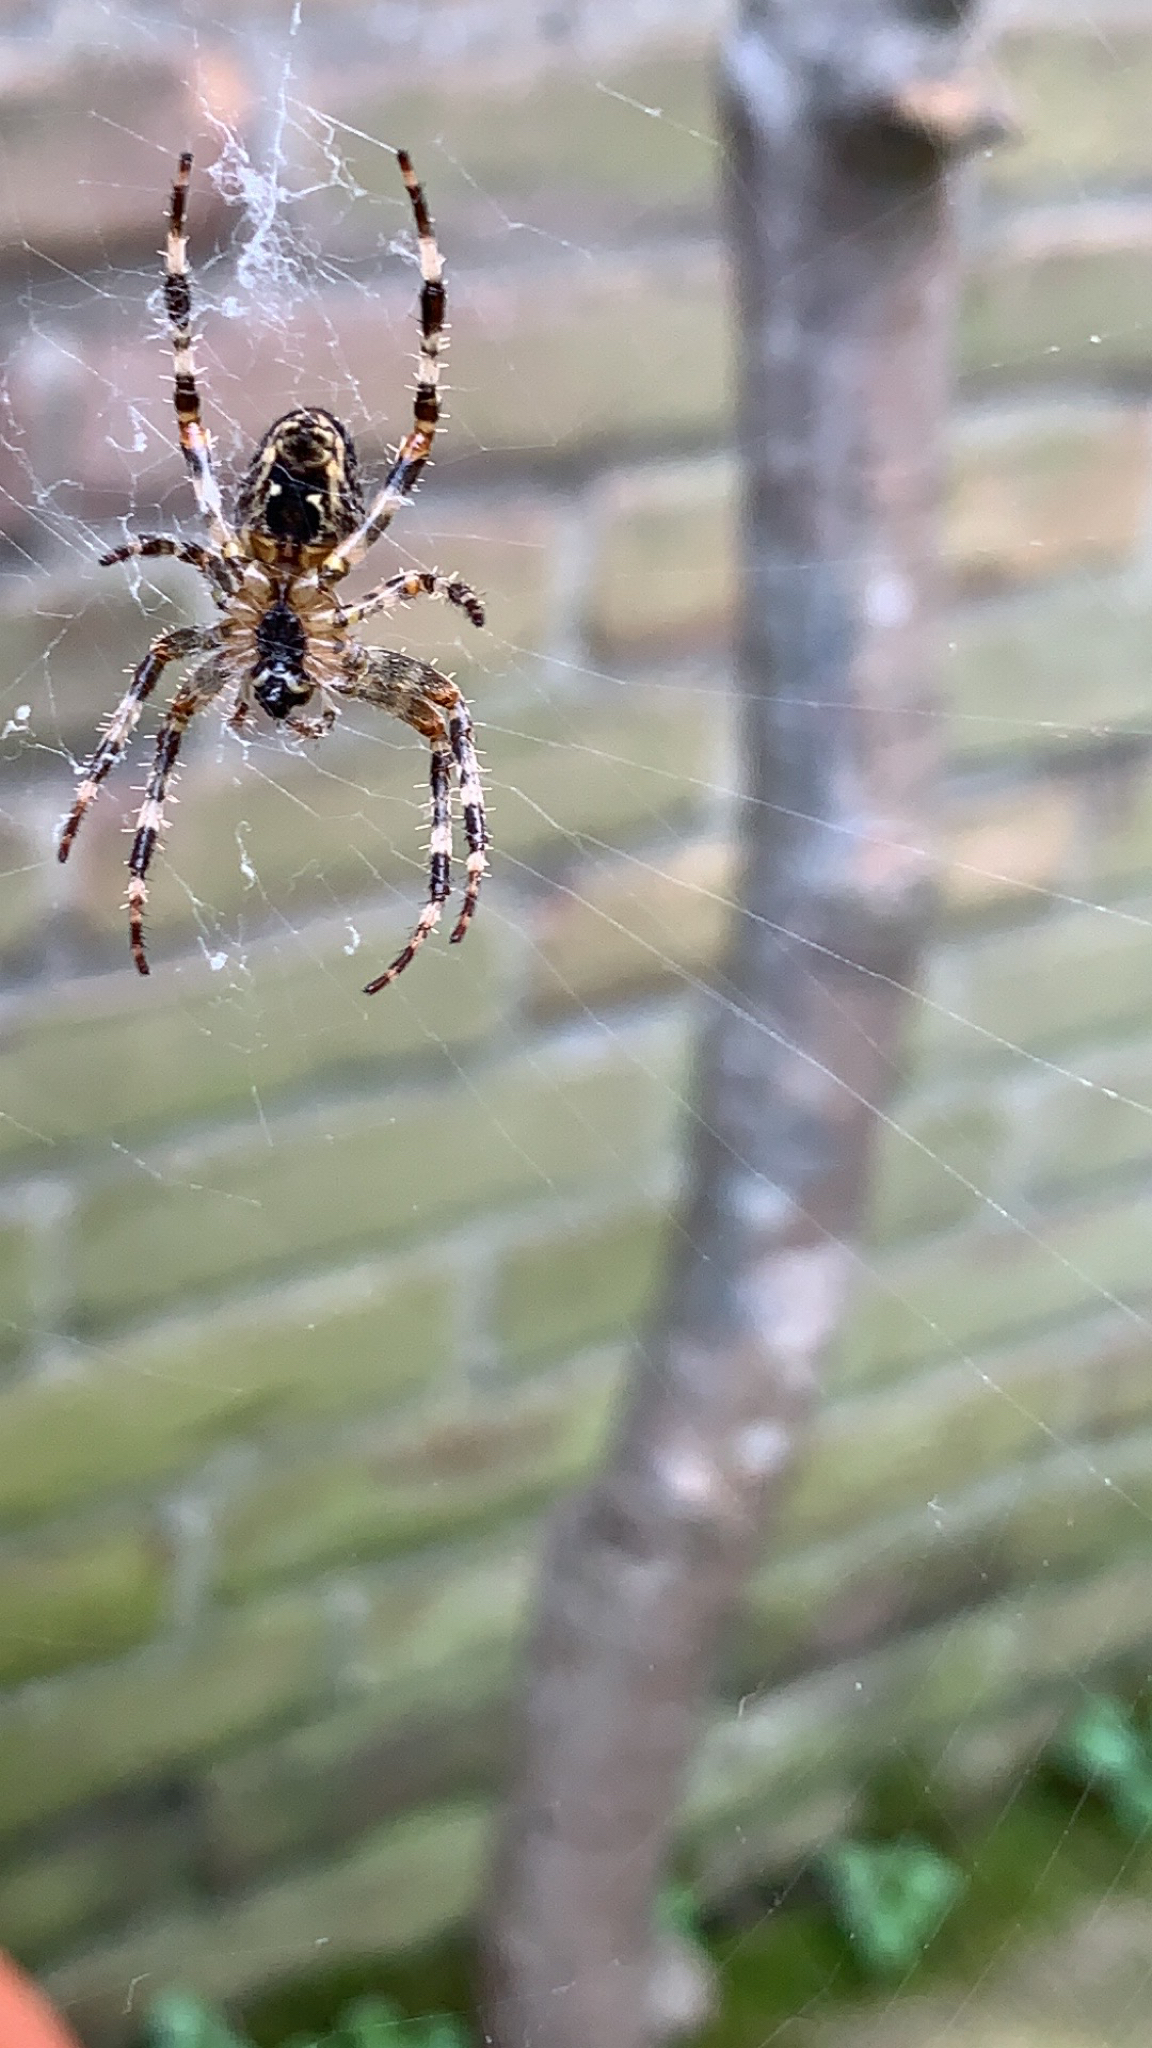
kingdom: Animalia
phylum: Arthropoda
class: Arachnida
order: Araneae
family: Araneidae
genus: Araneus
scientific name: Araneus diadematus
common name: Cross orbweaver
